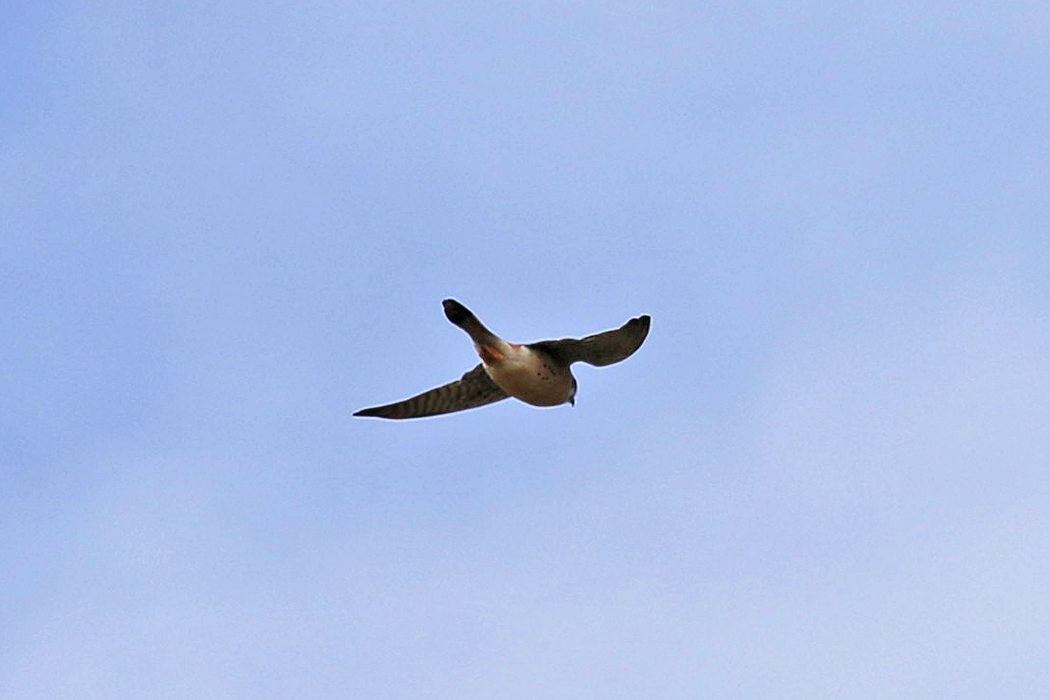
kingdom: Animalia
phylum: Chordata
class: Aves
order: Falconiformes
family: Falconidae
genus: Falco
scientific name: Falco sparverius
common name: American kestrel
